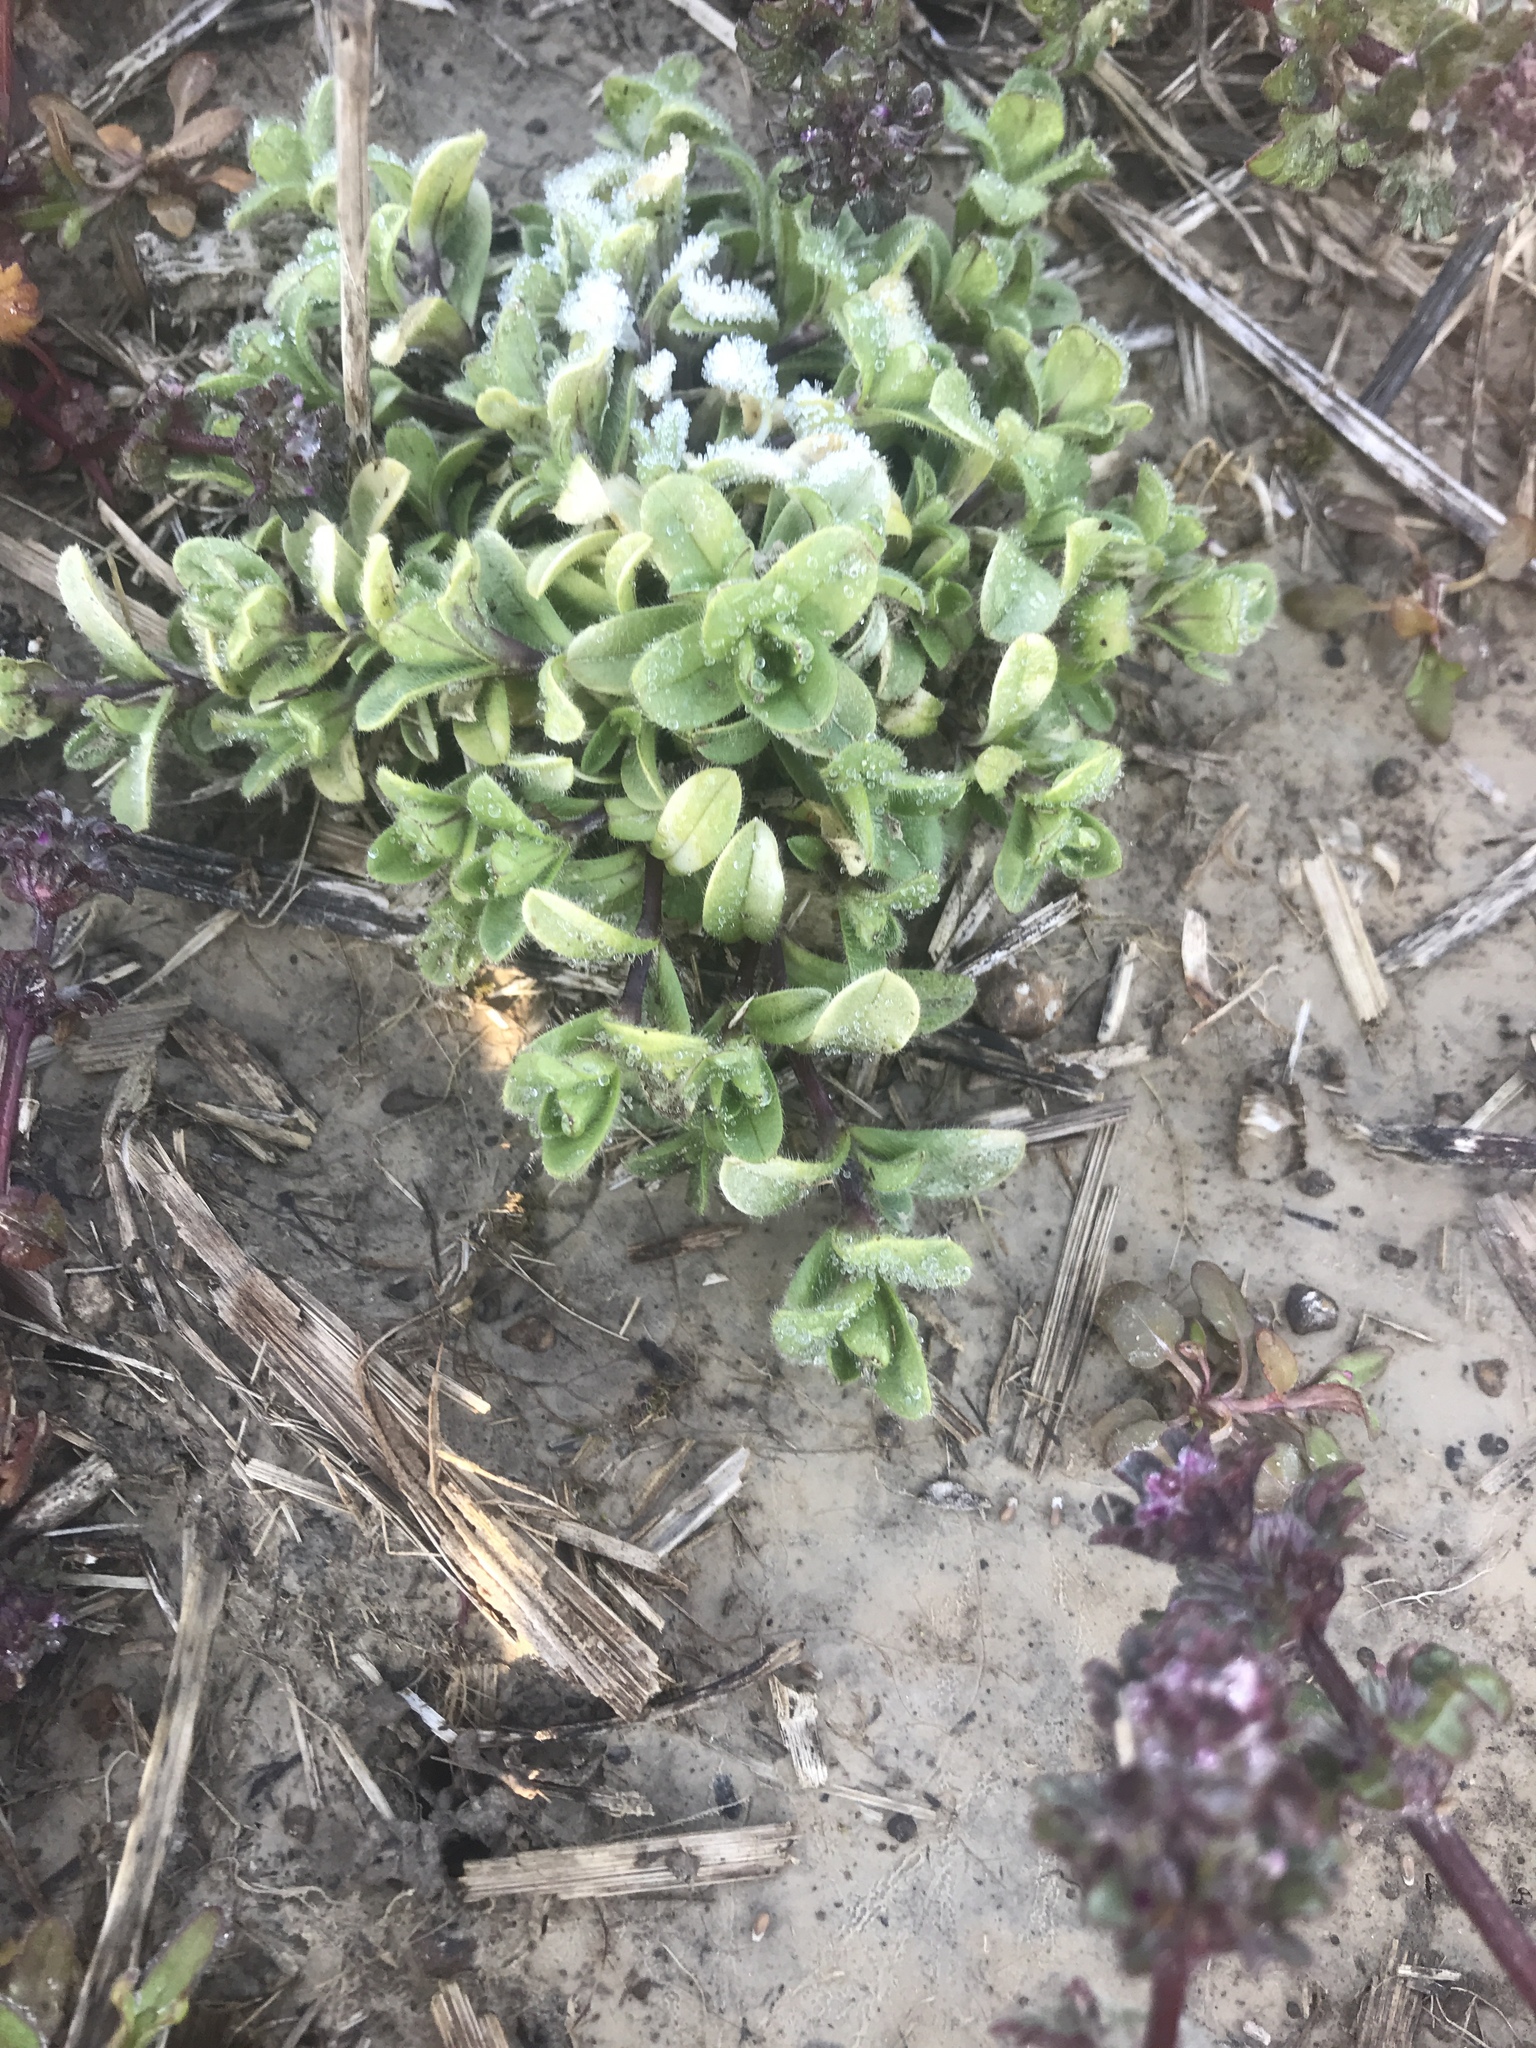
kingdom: Plantae
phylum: Tracheophyta
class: Magnoliopsida
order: Caryophyllales
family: Caryophyllaceae
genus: Cerastium
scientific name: Cerastium fontanum
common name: Common mouse-ear
